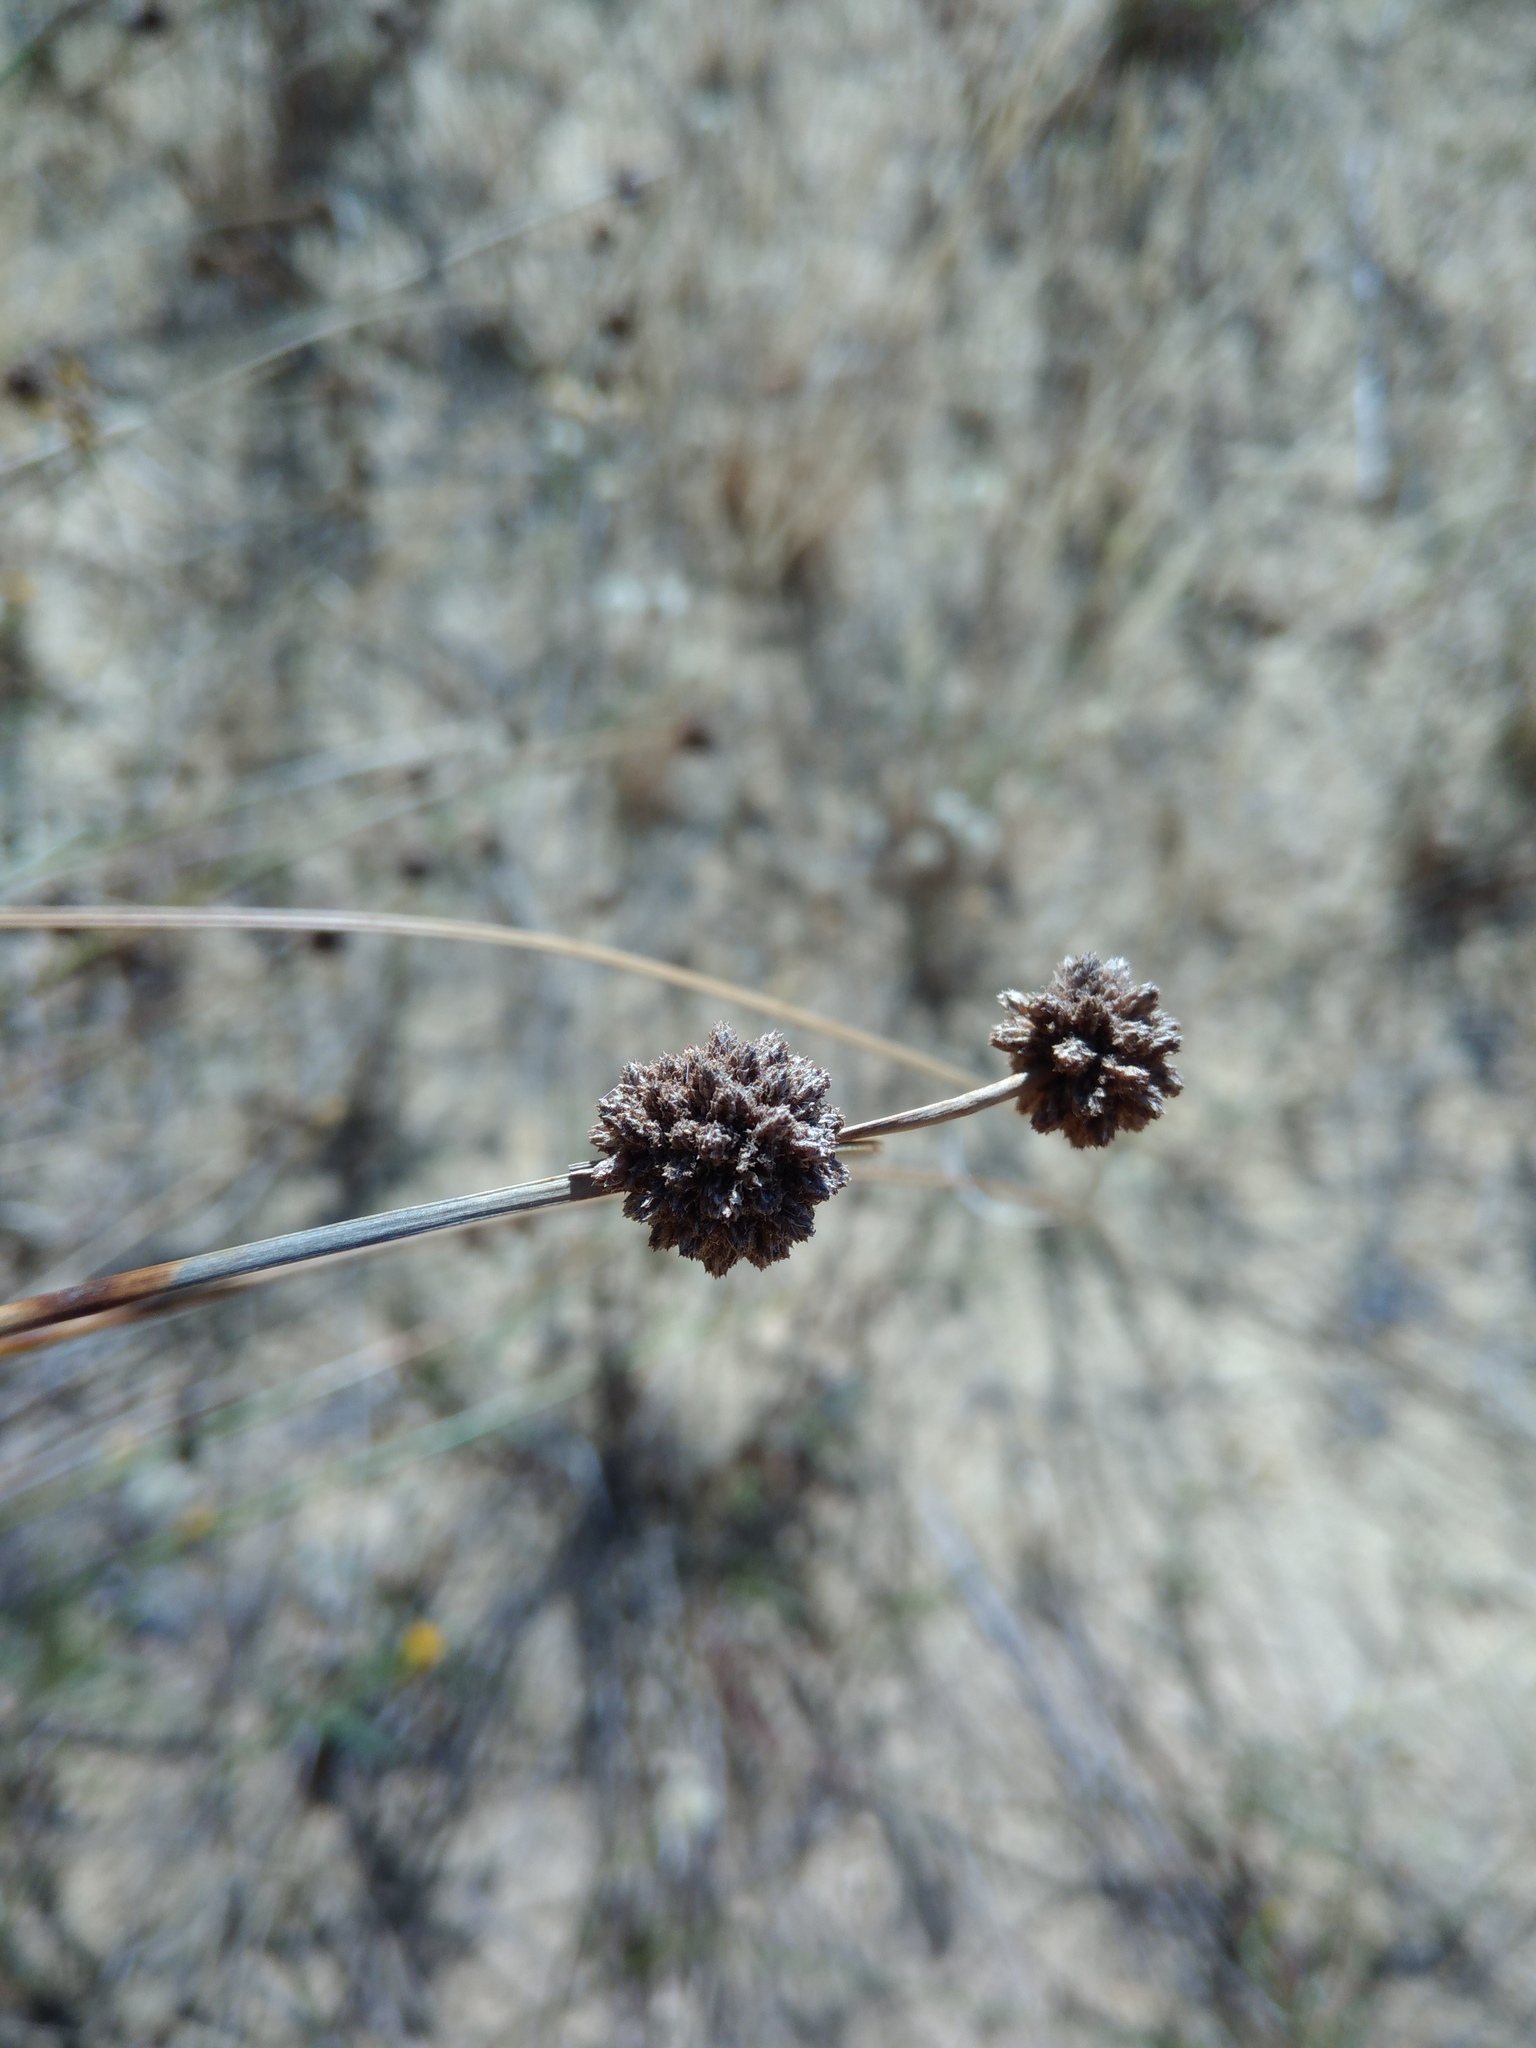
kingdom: Plantae
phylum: Tracheophyta
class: Liliopsida
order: Poales
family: Cyperaceae
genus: Scirpoides
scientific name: Scirpoides holoschoenus
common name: Round-headed club-rush
